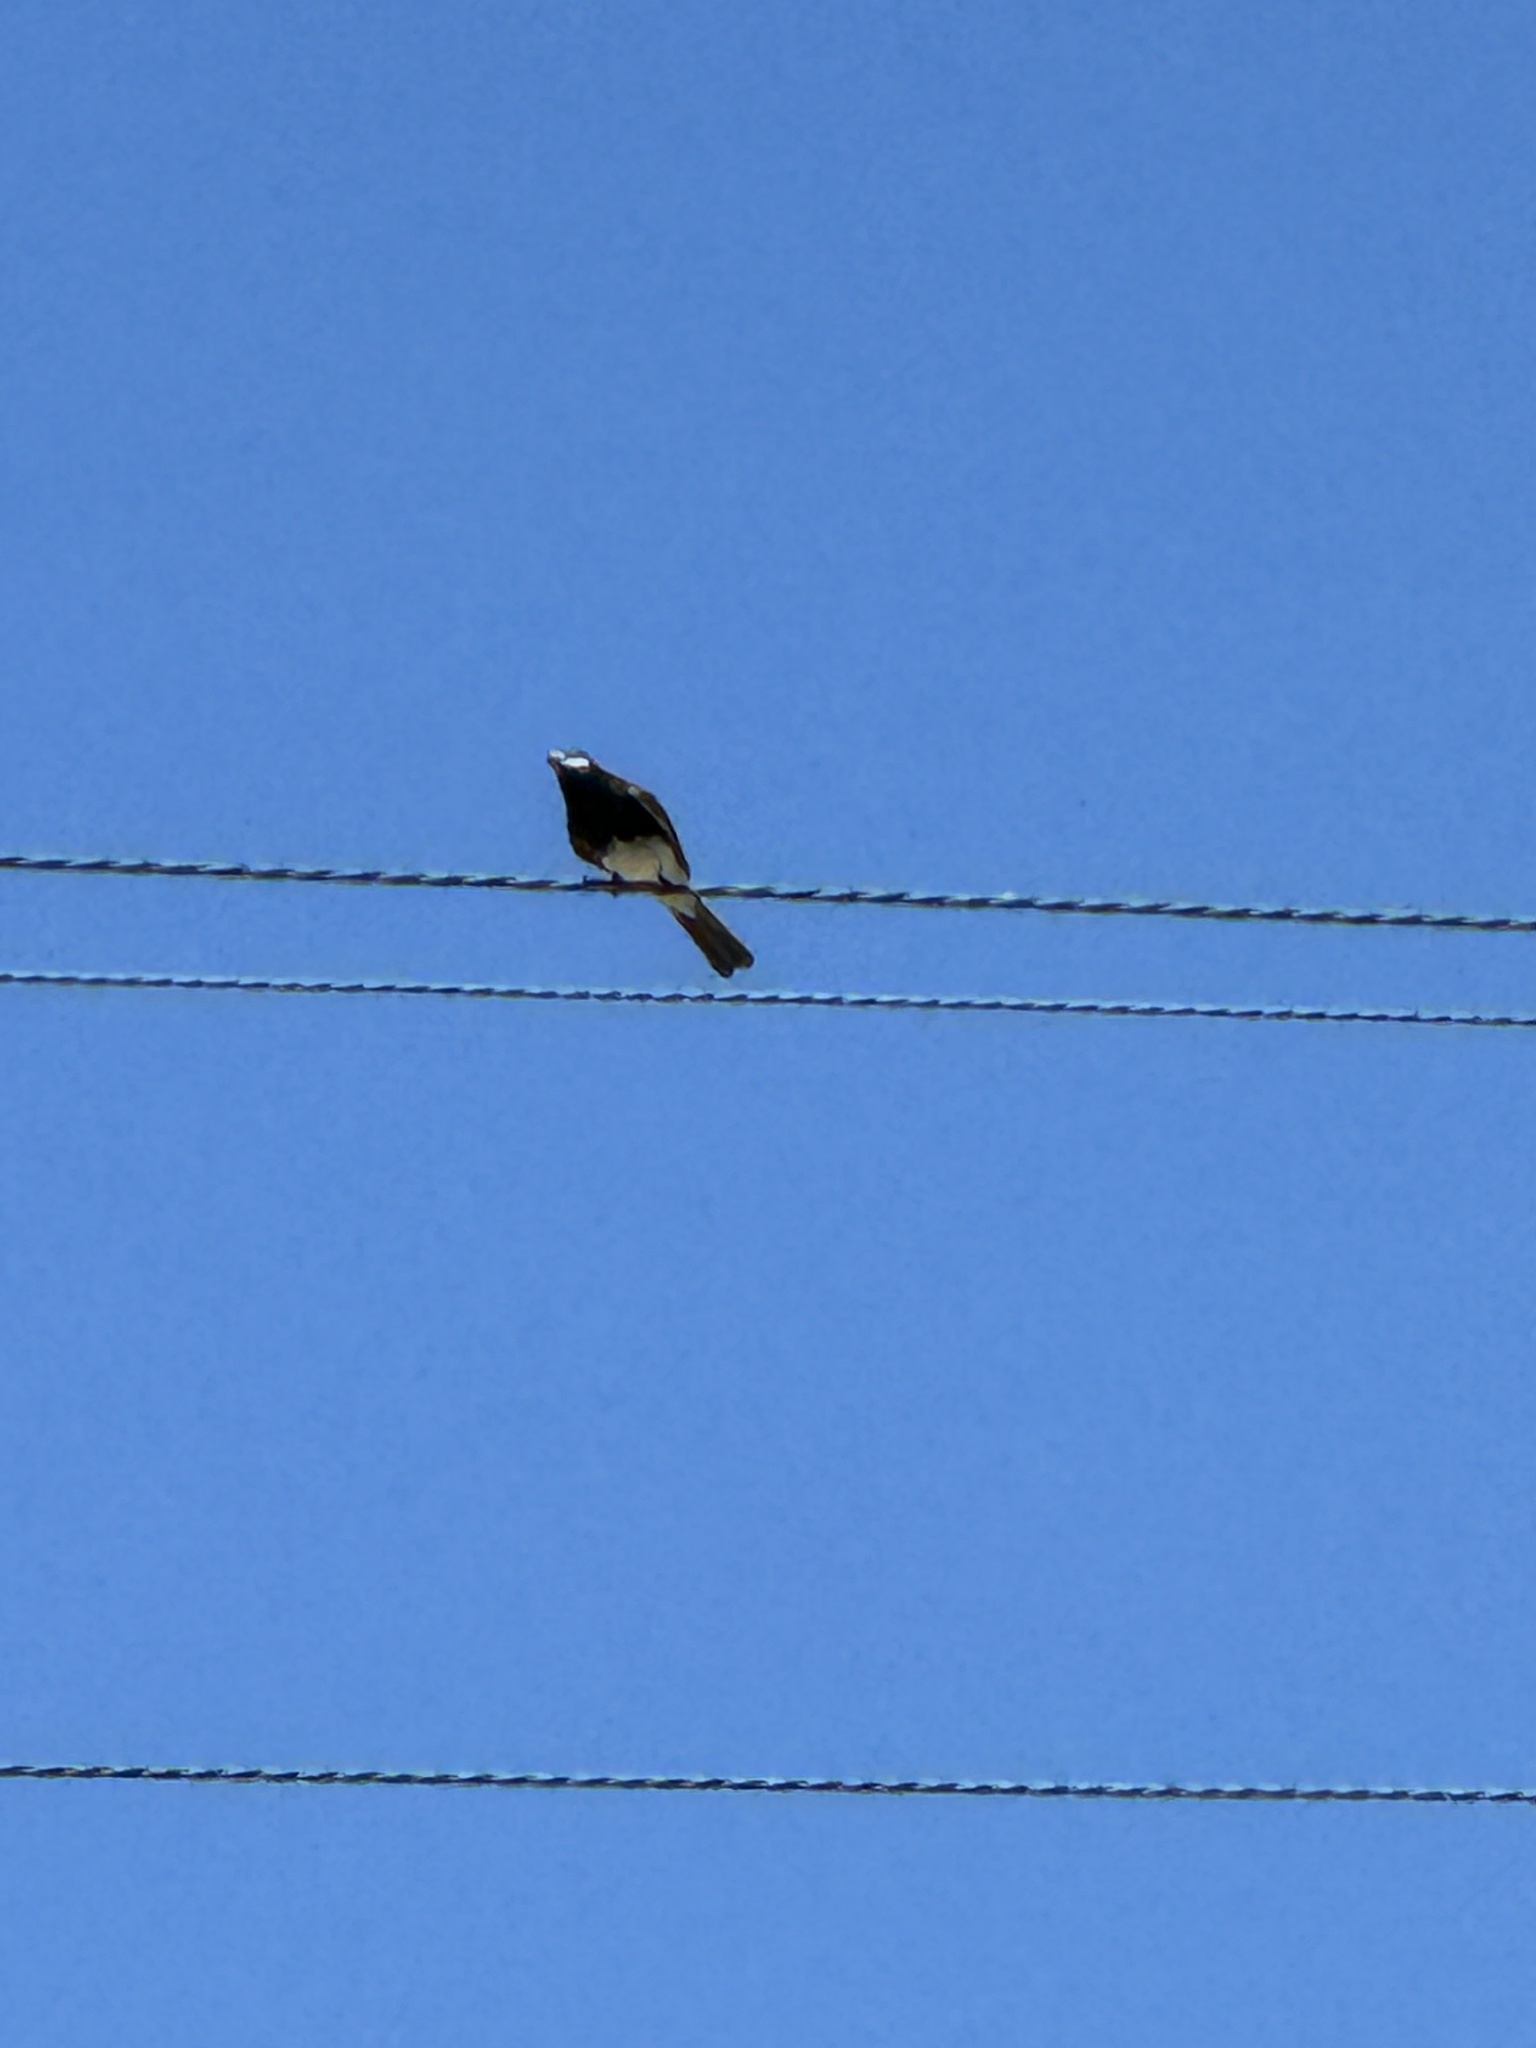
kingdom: Animalia
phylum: Chordata
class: Aves
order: Passeriformes
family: Tyrannidae
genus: Sayornis
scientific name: Sayornis nigricans
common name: Black phoebe
